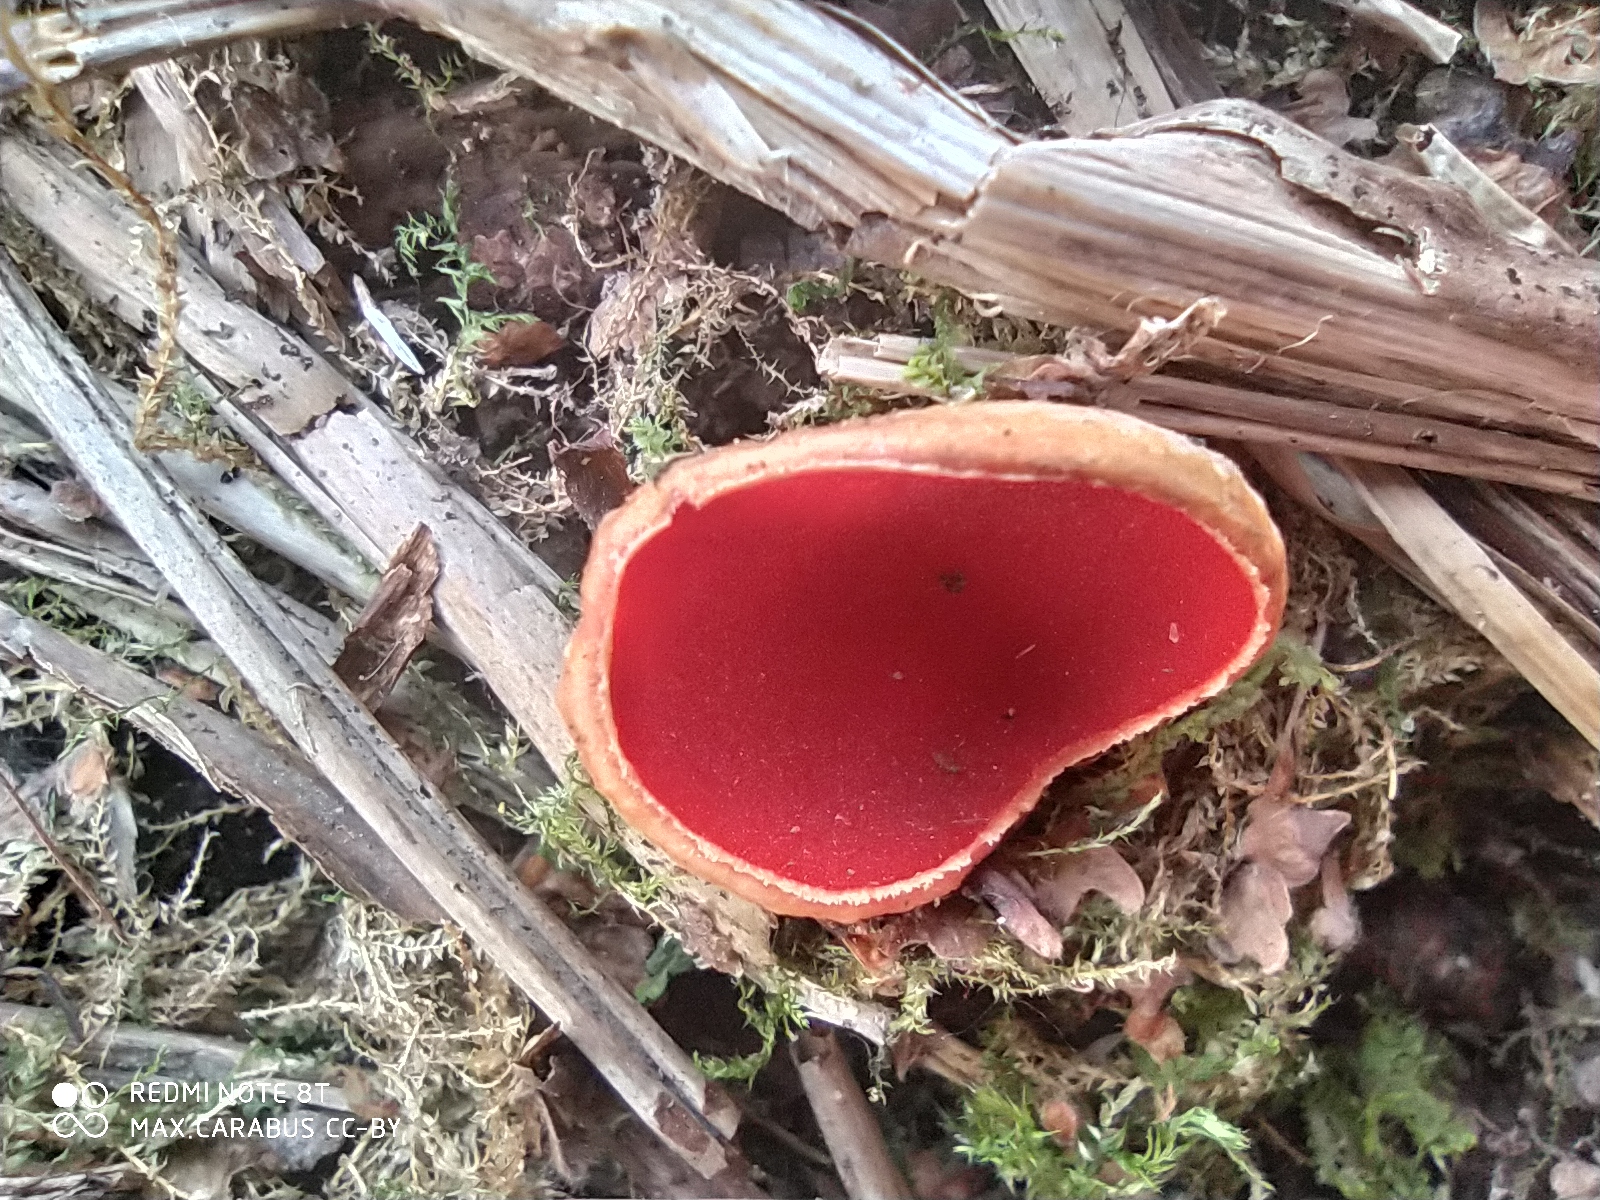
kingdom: Fungi
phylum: Ascomycota
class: Pezizomycetes
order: Pezizales
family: Sarcoscyphaceae
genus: Sarcoscypha
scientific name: Sarcoscypha austriaca
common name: Scarlet elfcup
